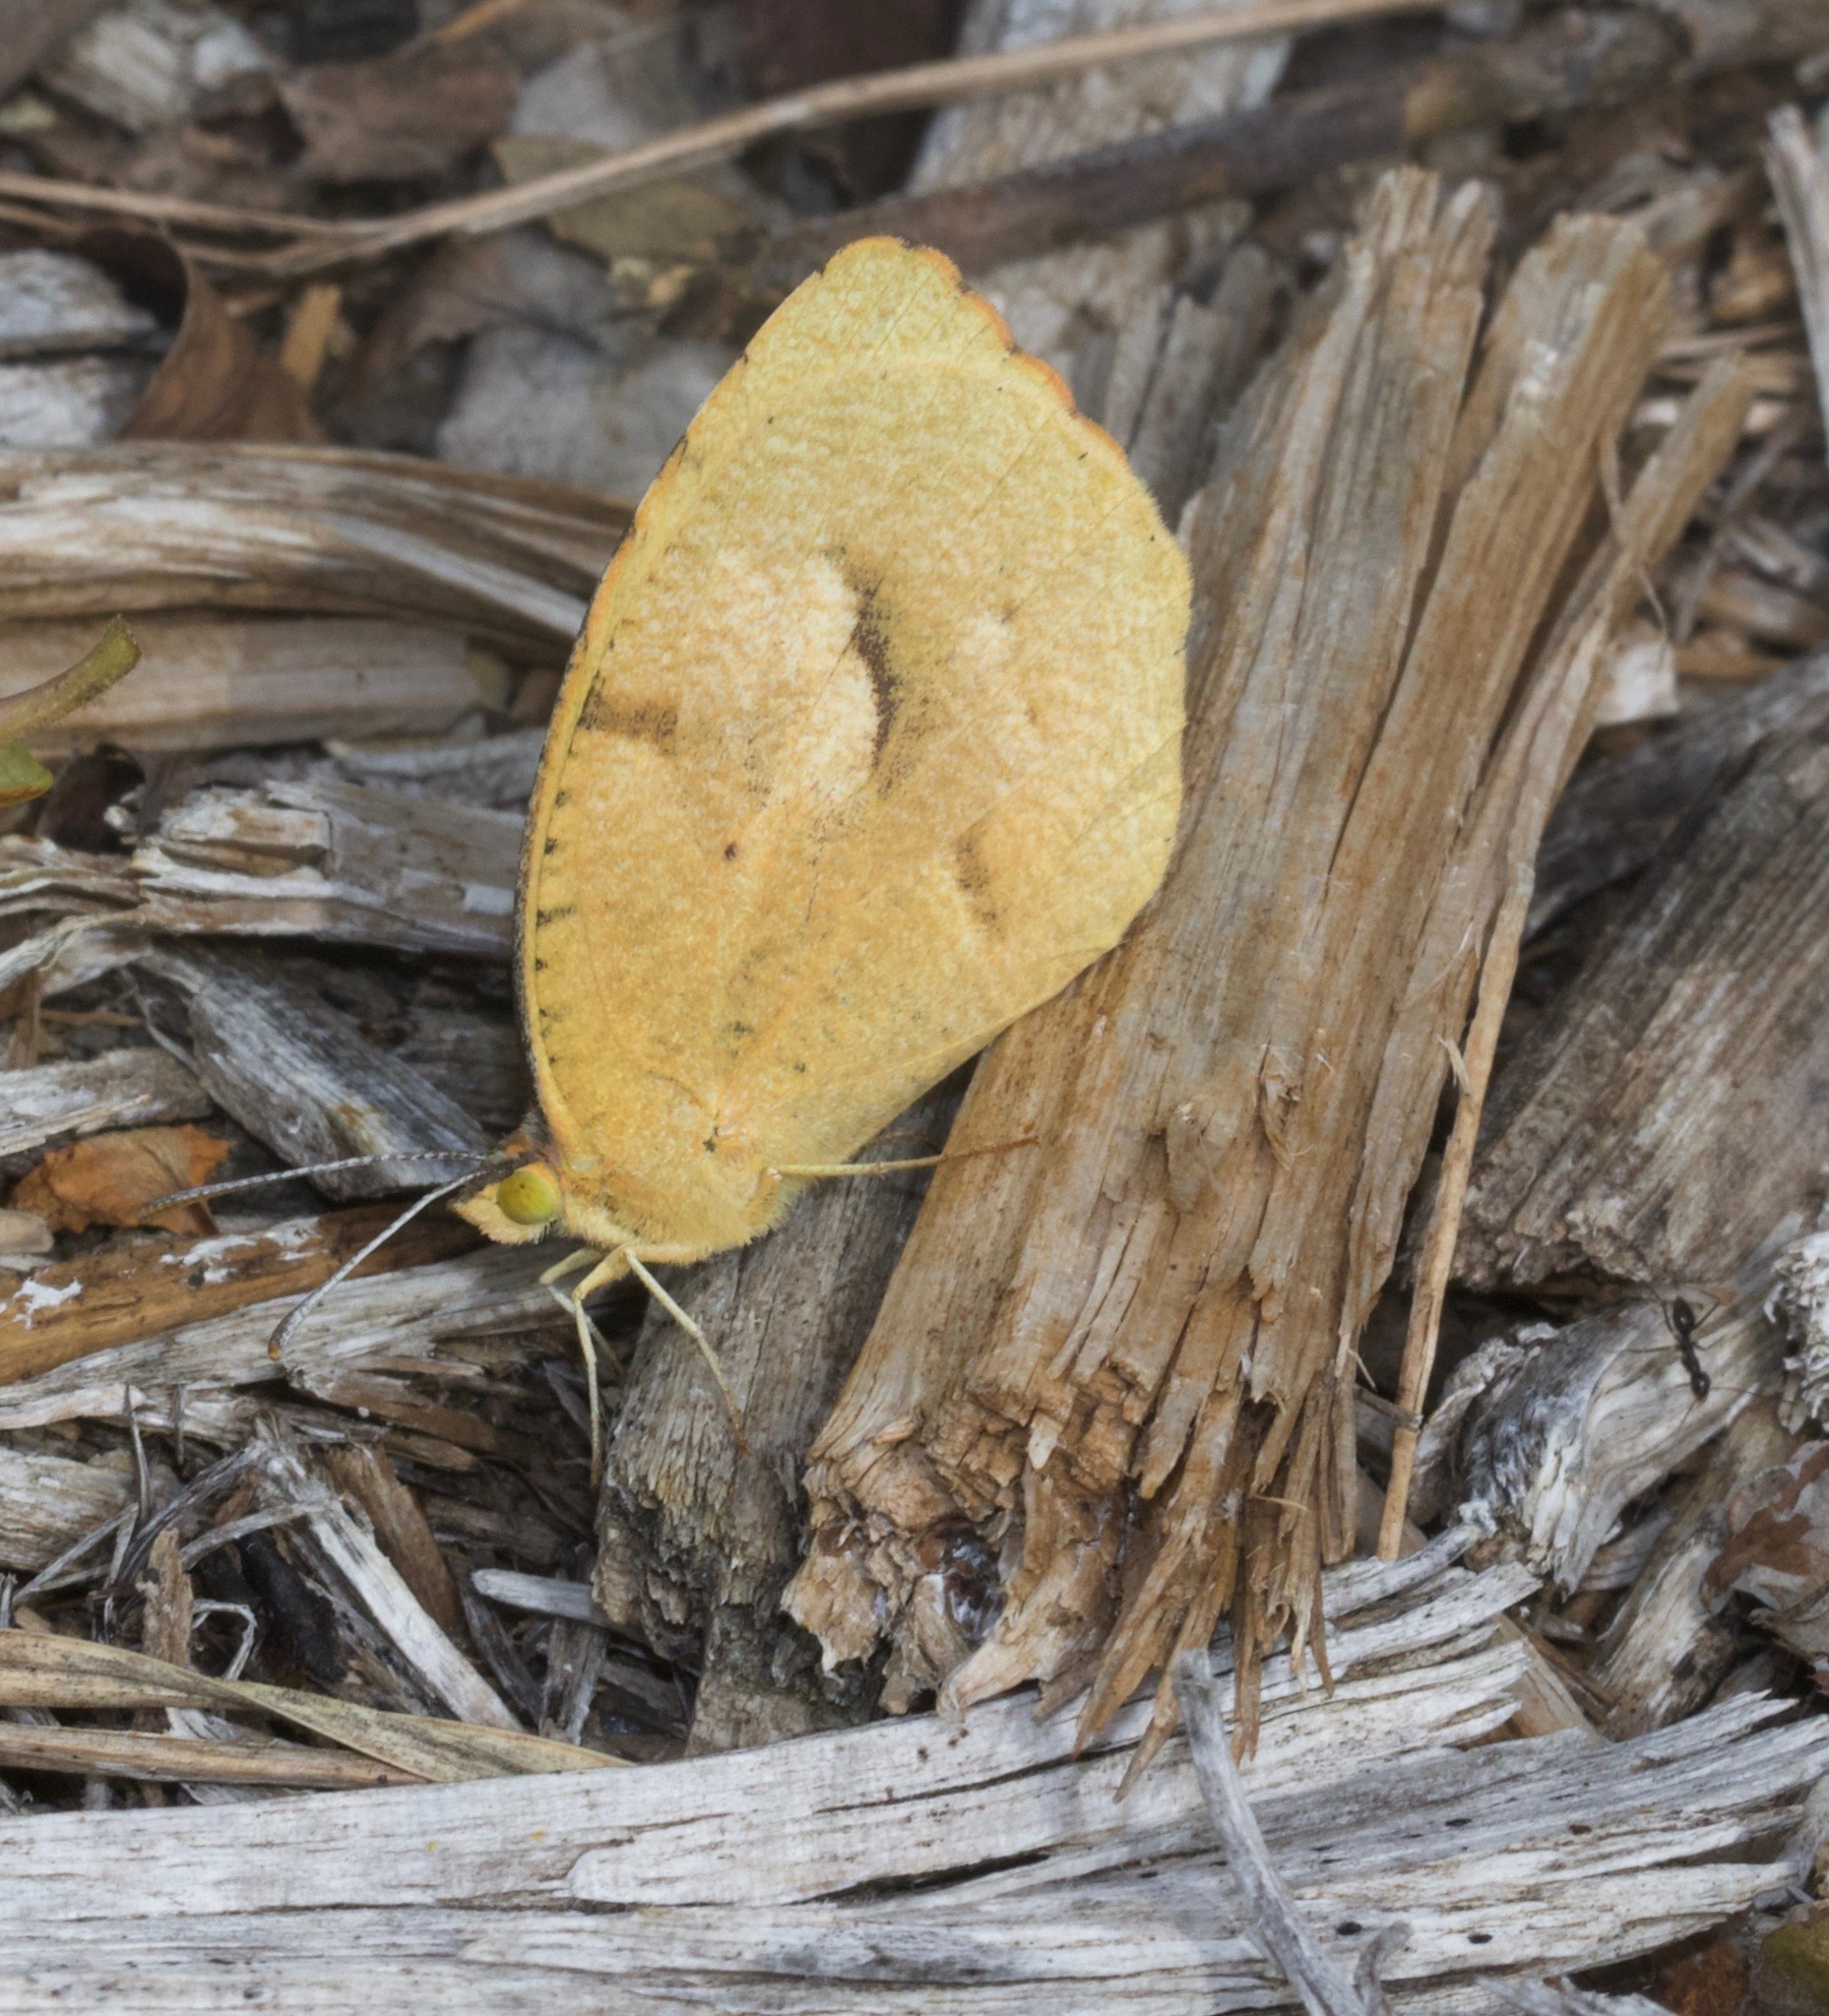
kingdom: Animalia
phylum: Arthropoda
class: Insecta
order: Lepidoptera
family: Pieridae
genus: Abaeis
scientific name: Abaeis nicippe
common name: Sleepy orange
